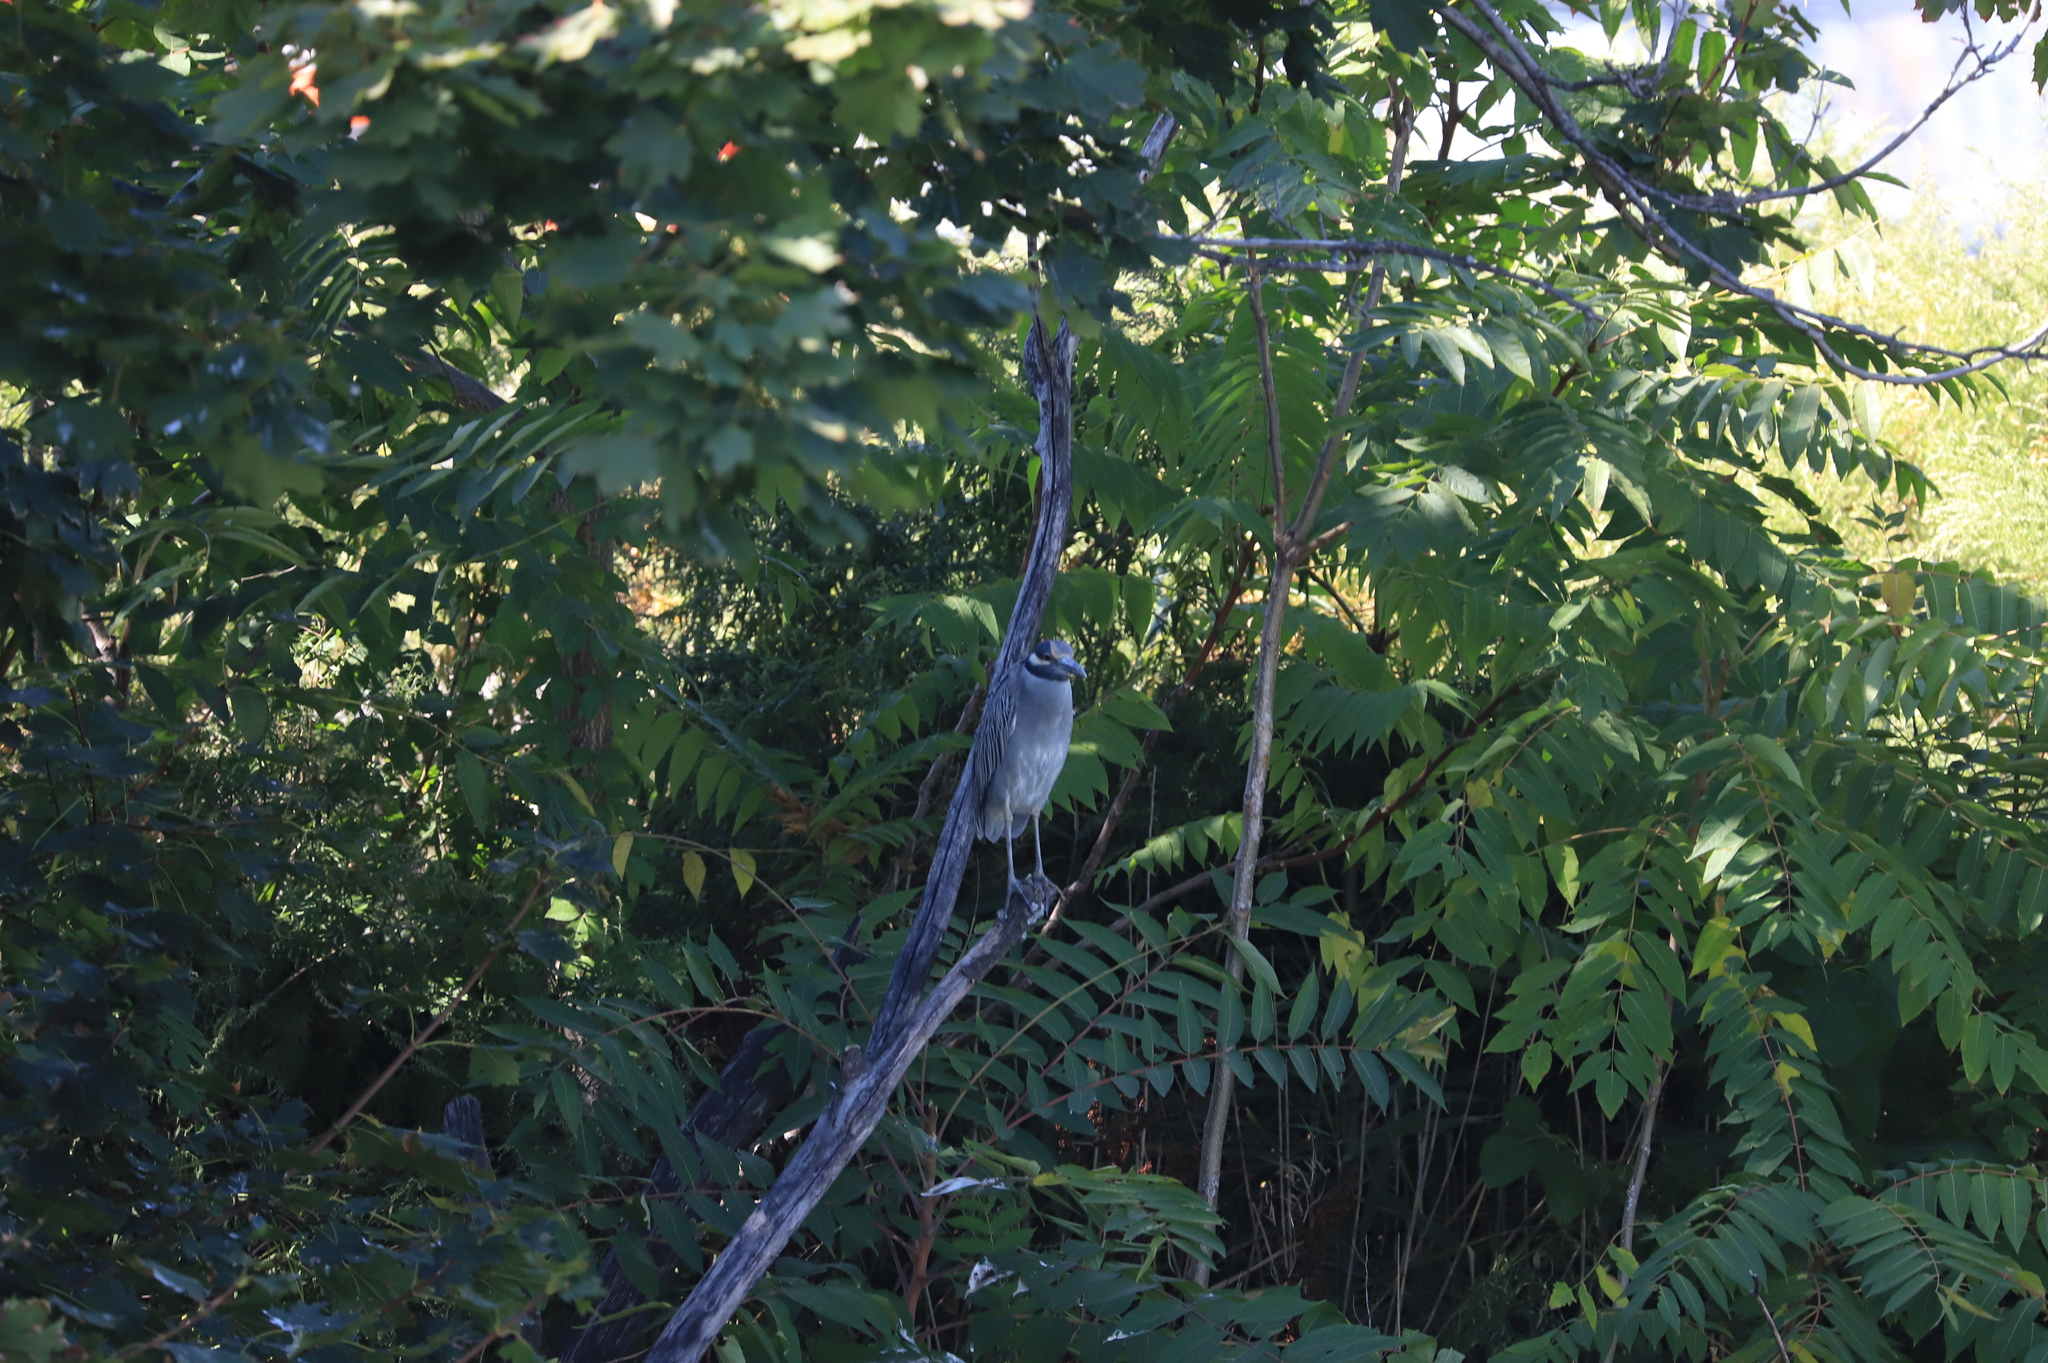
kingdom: Animalia
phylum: Chordata
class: Aves
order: Pelecaniformes
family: Ardeidae
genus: Nyctanassa
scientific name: Nyctanassa violacea
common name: Yellow-crowned night heron
